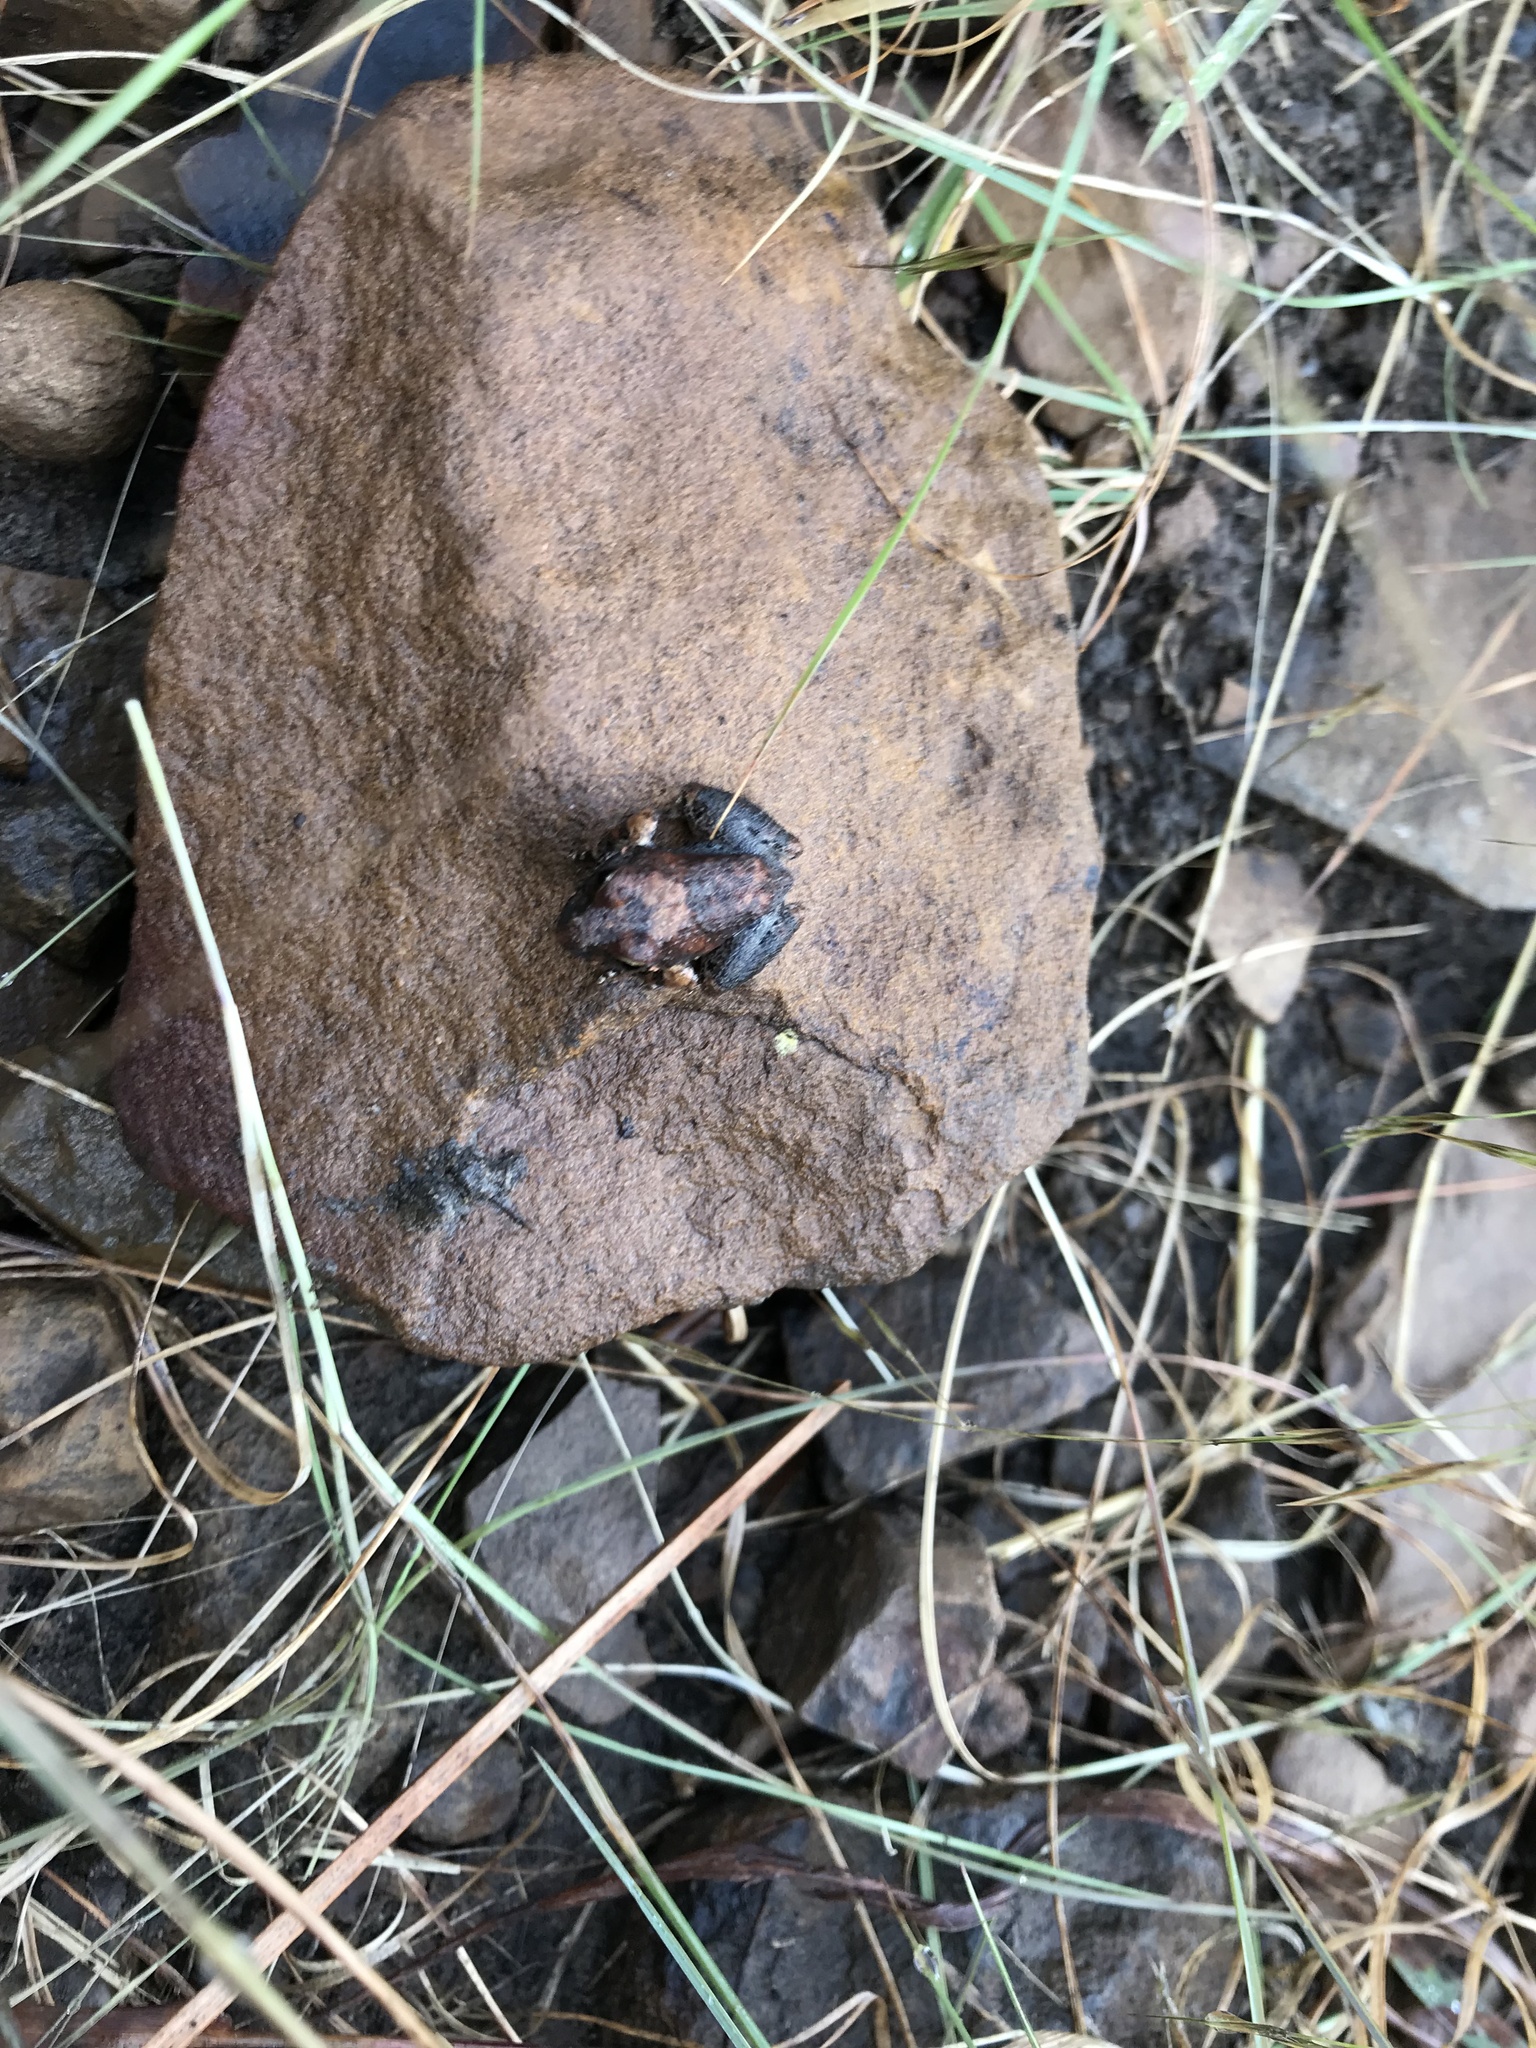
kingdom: Animalia
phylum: Chordata
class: Amphibia
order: Anura
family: Pyxicephalidae
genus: Tomopterna
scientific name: Tomopterna natalensis
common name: Natal sand frog
